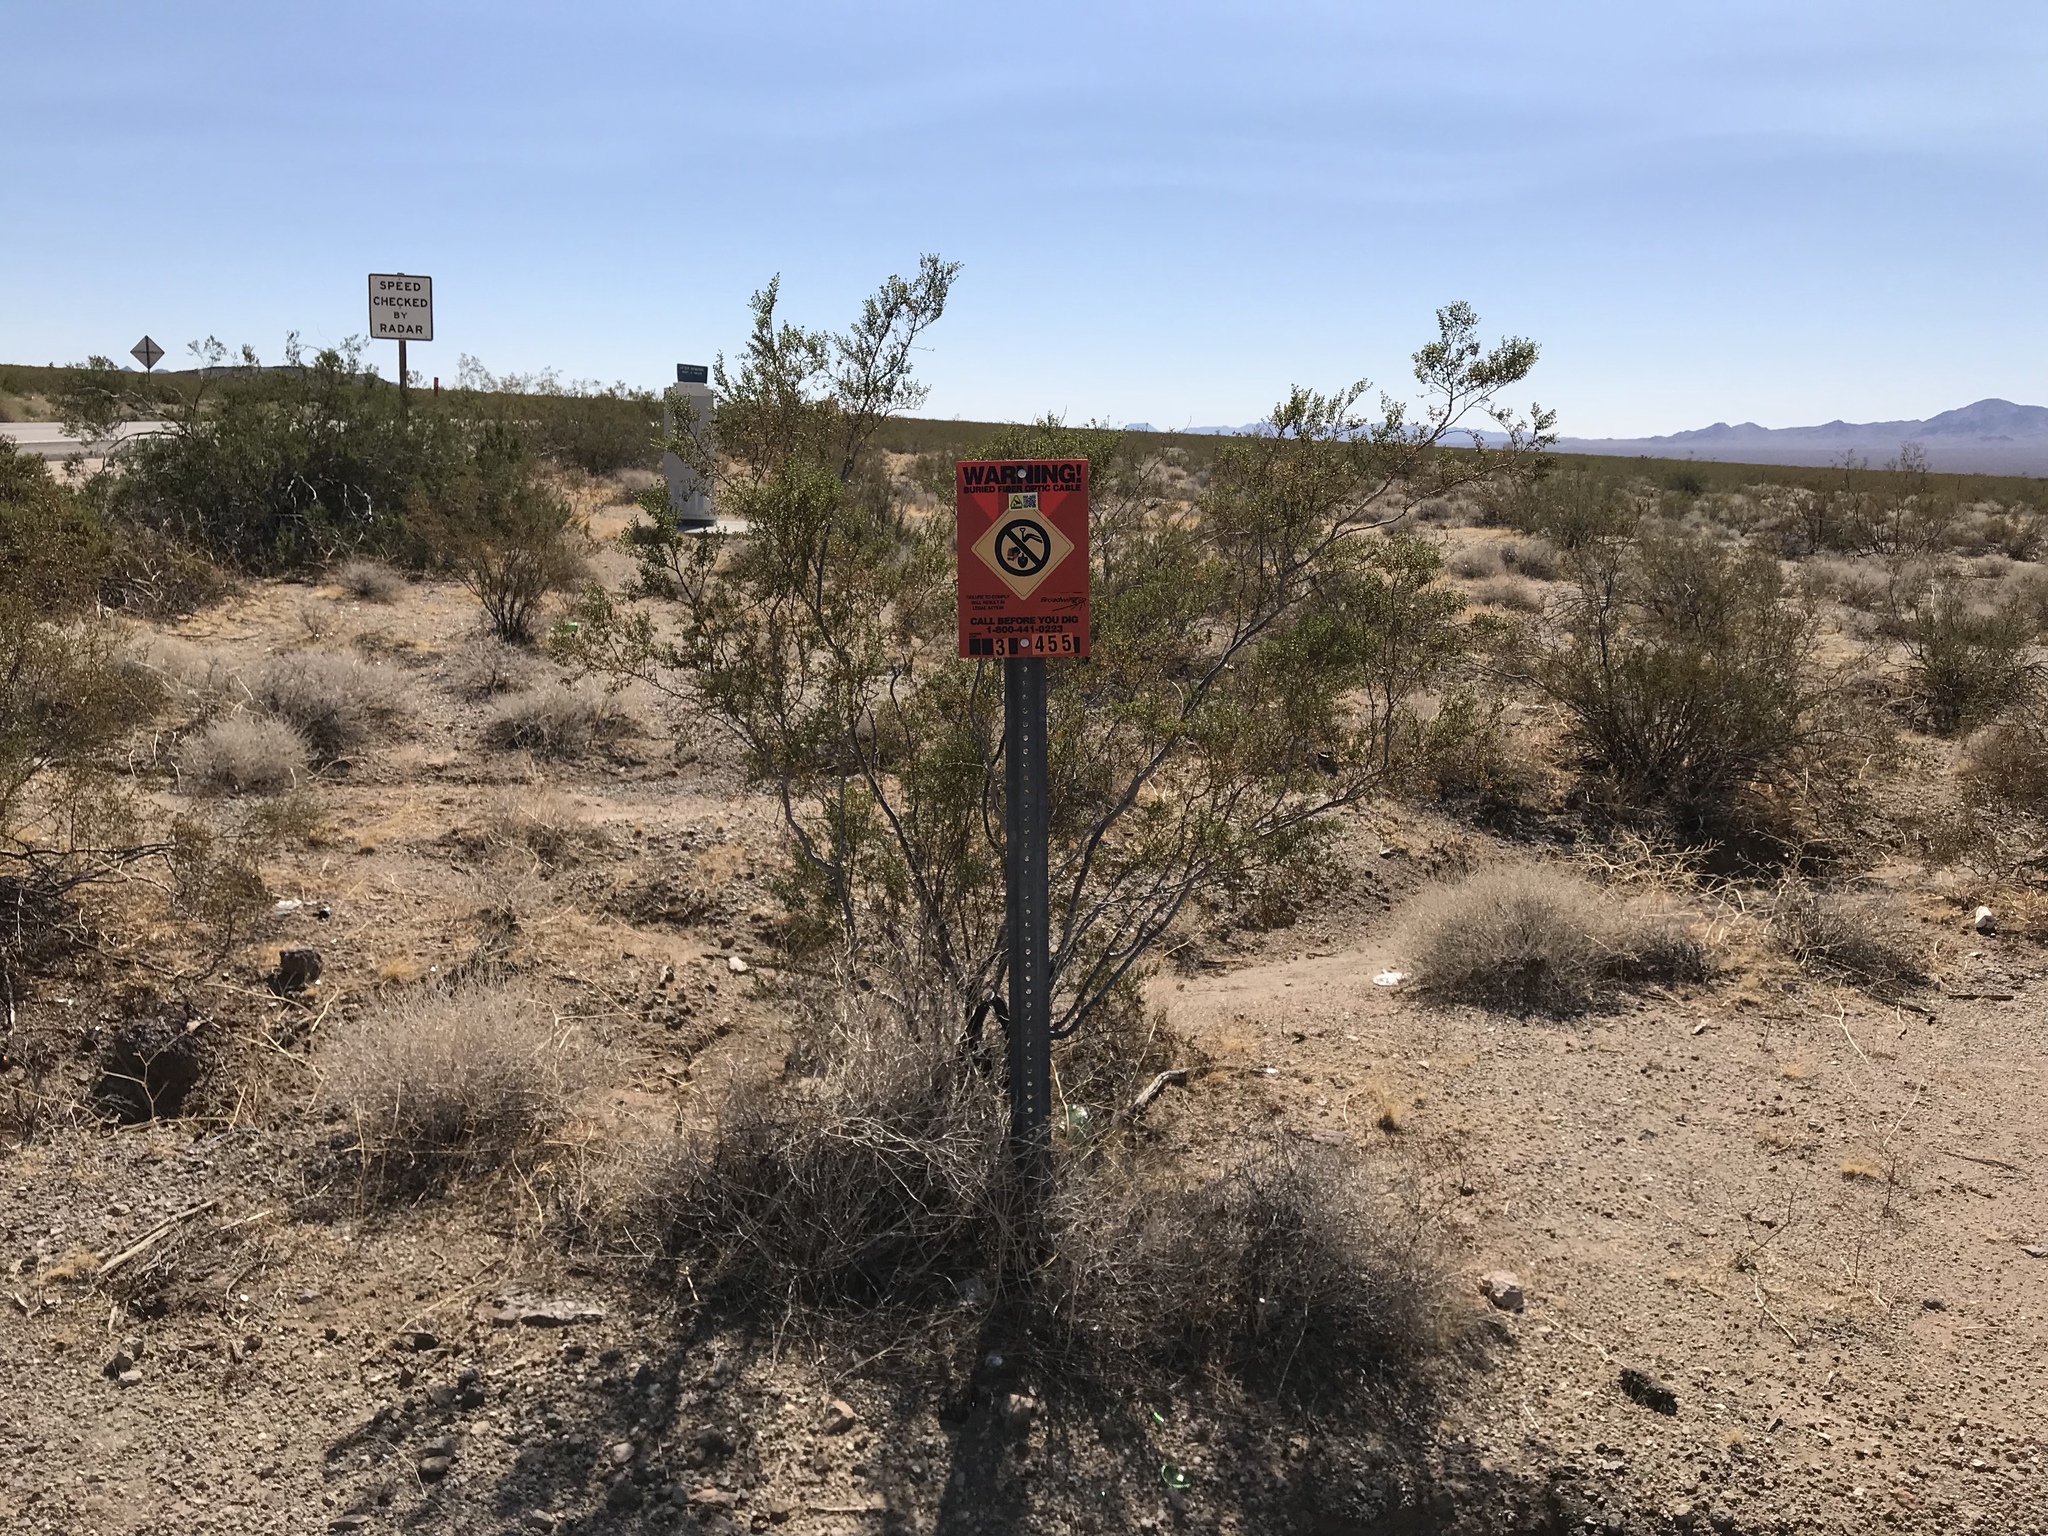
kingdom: Plantae
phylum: Tracheophyta
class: Magnoliopsida
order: Zygophyllales
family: Zygophyllaceae
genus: Larrea
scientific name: Larrea tridentata
